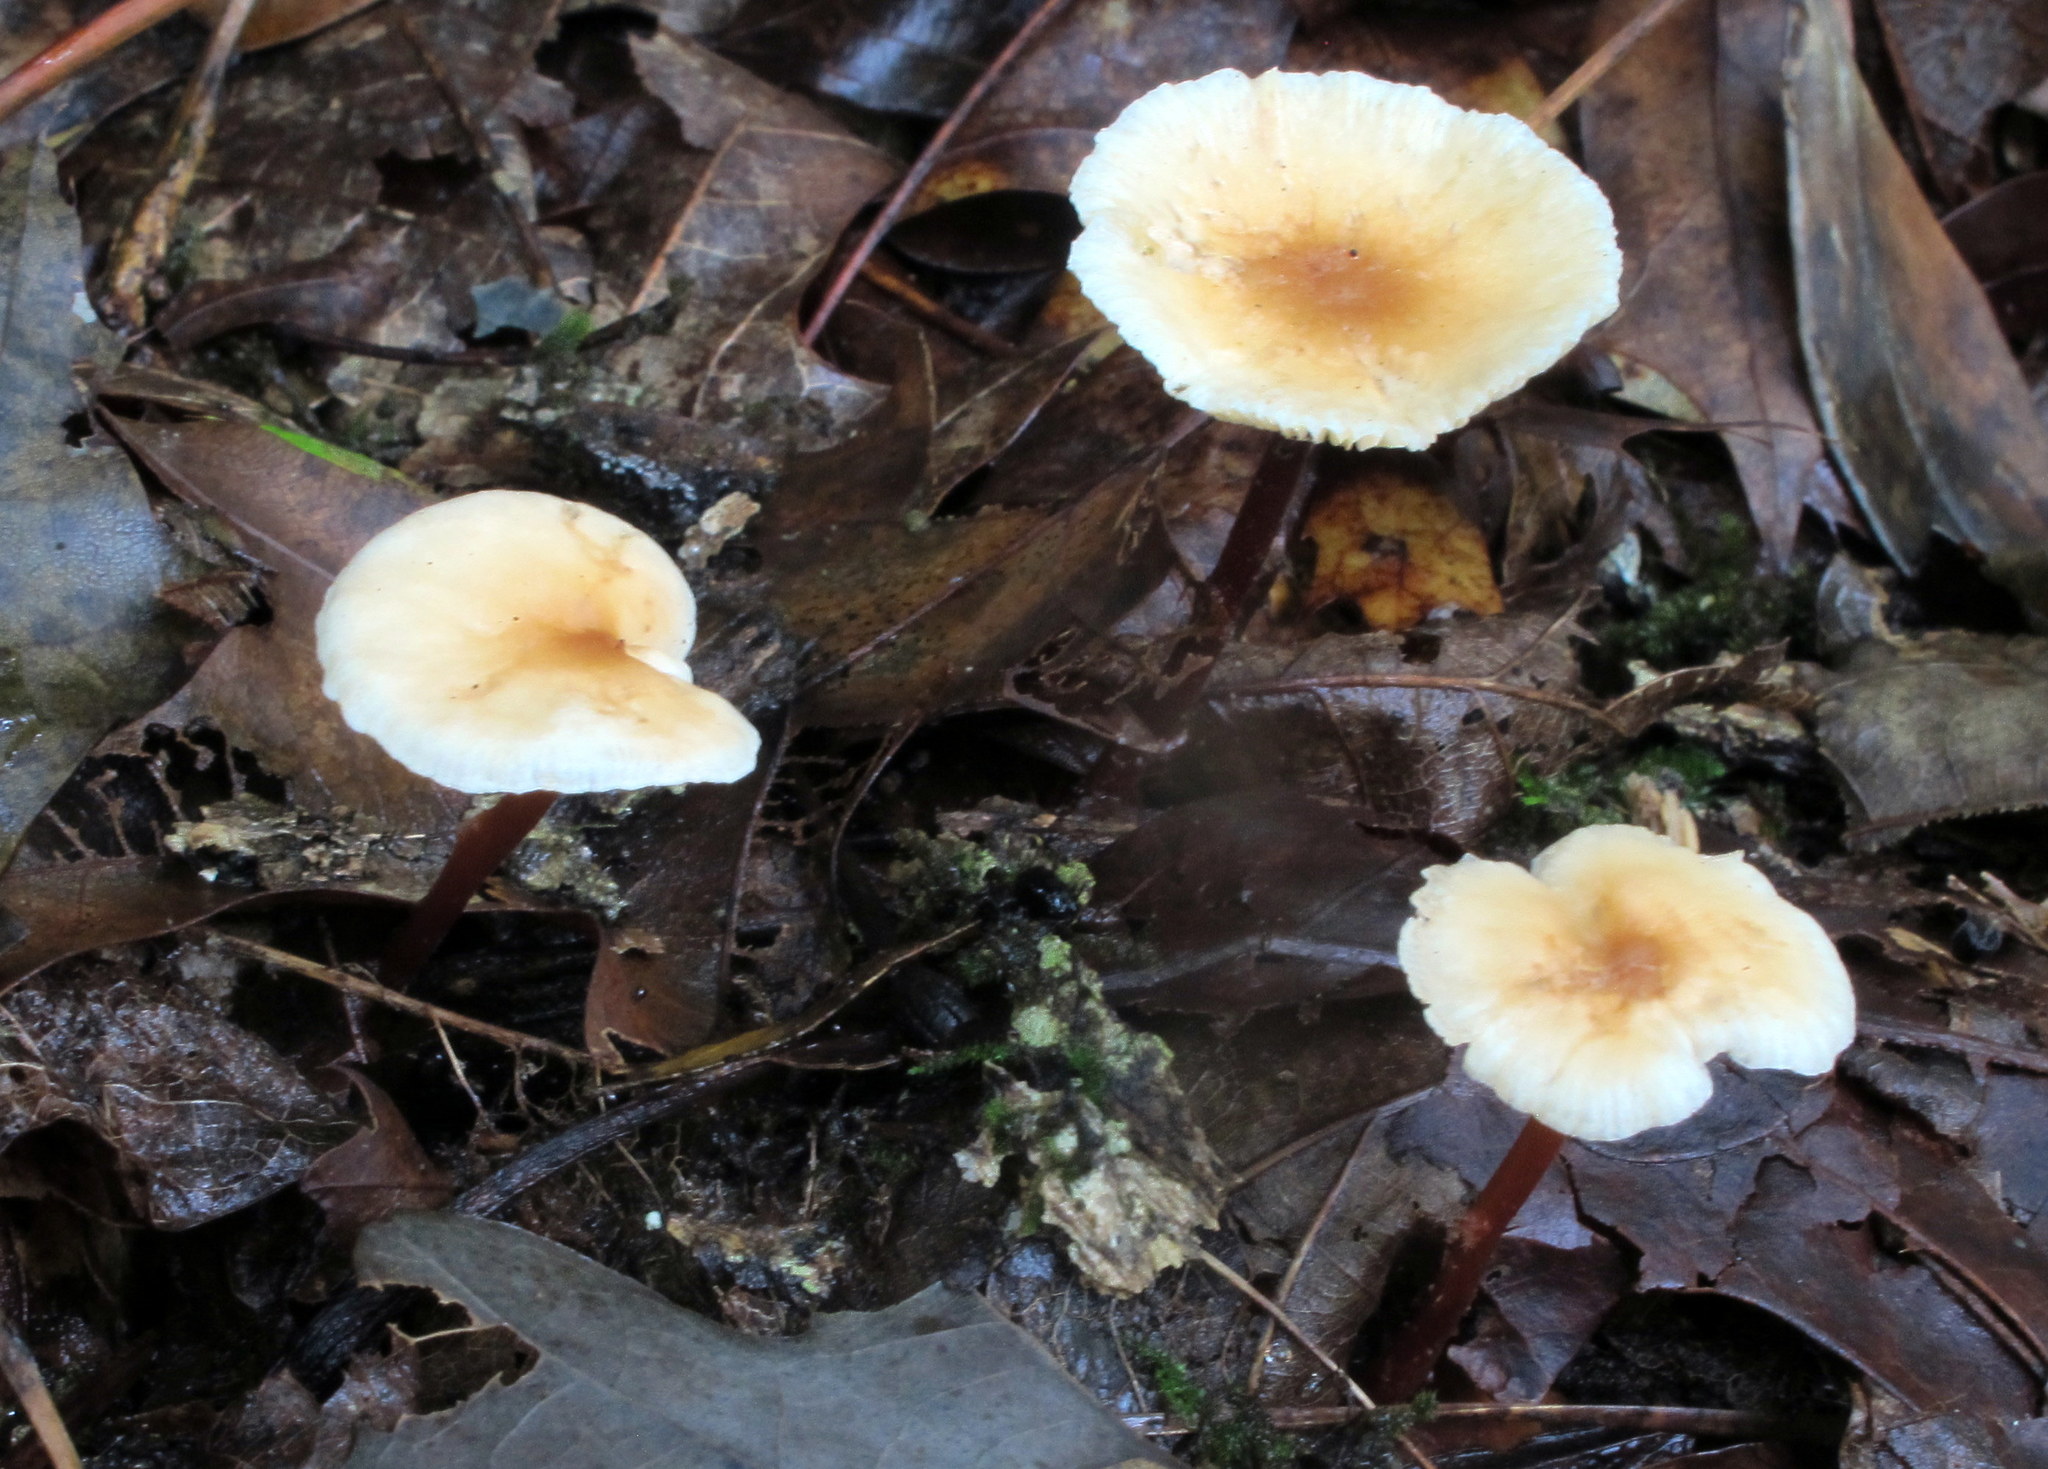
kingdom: Fungi
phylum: Basidiomycota
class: Agaricomycetes
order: Agaricales
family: Omphalotaceae
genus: Gymnopus
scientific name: Gymnopus semihirtipes
